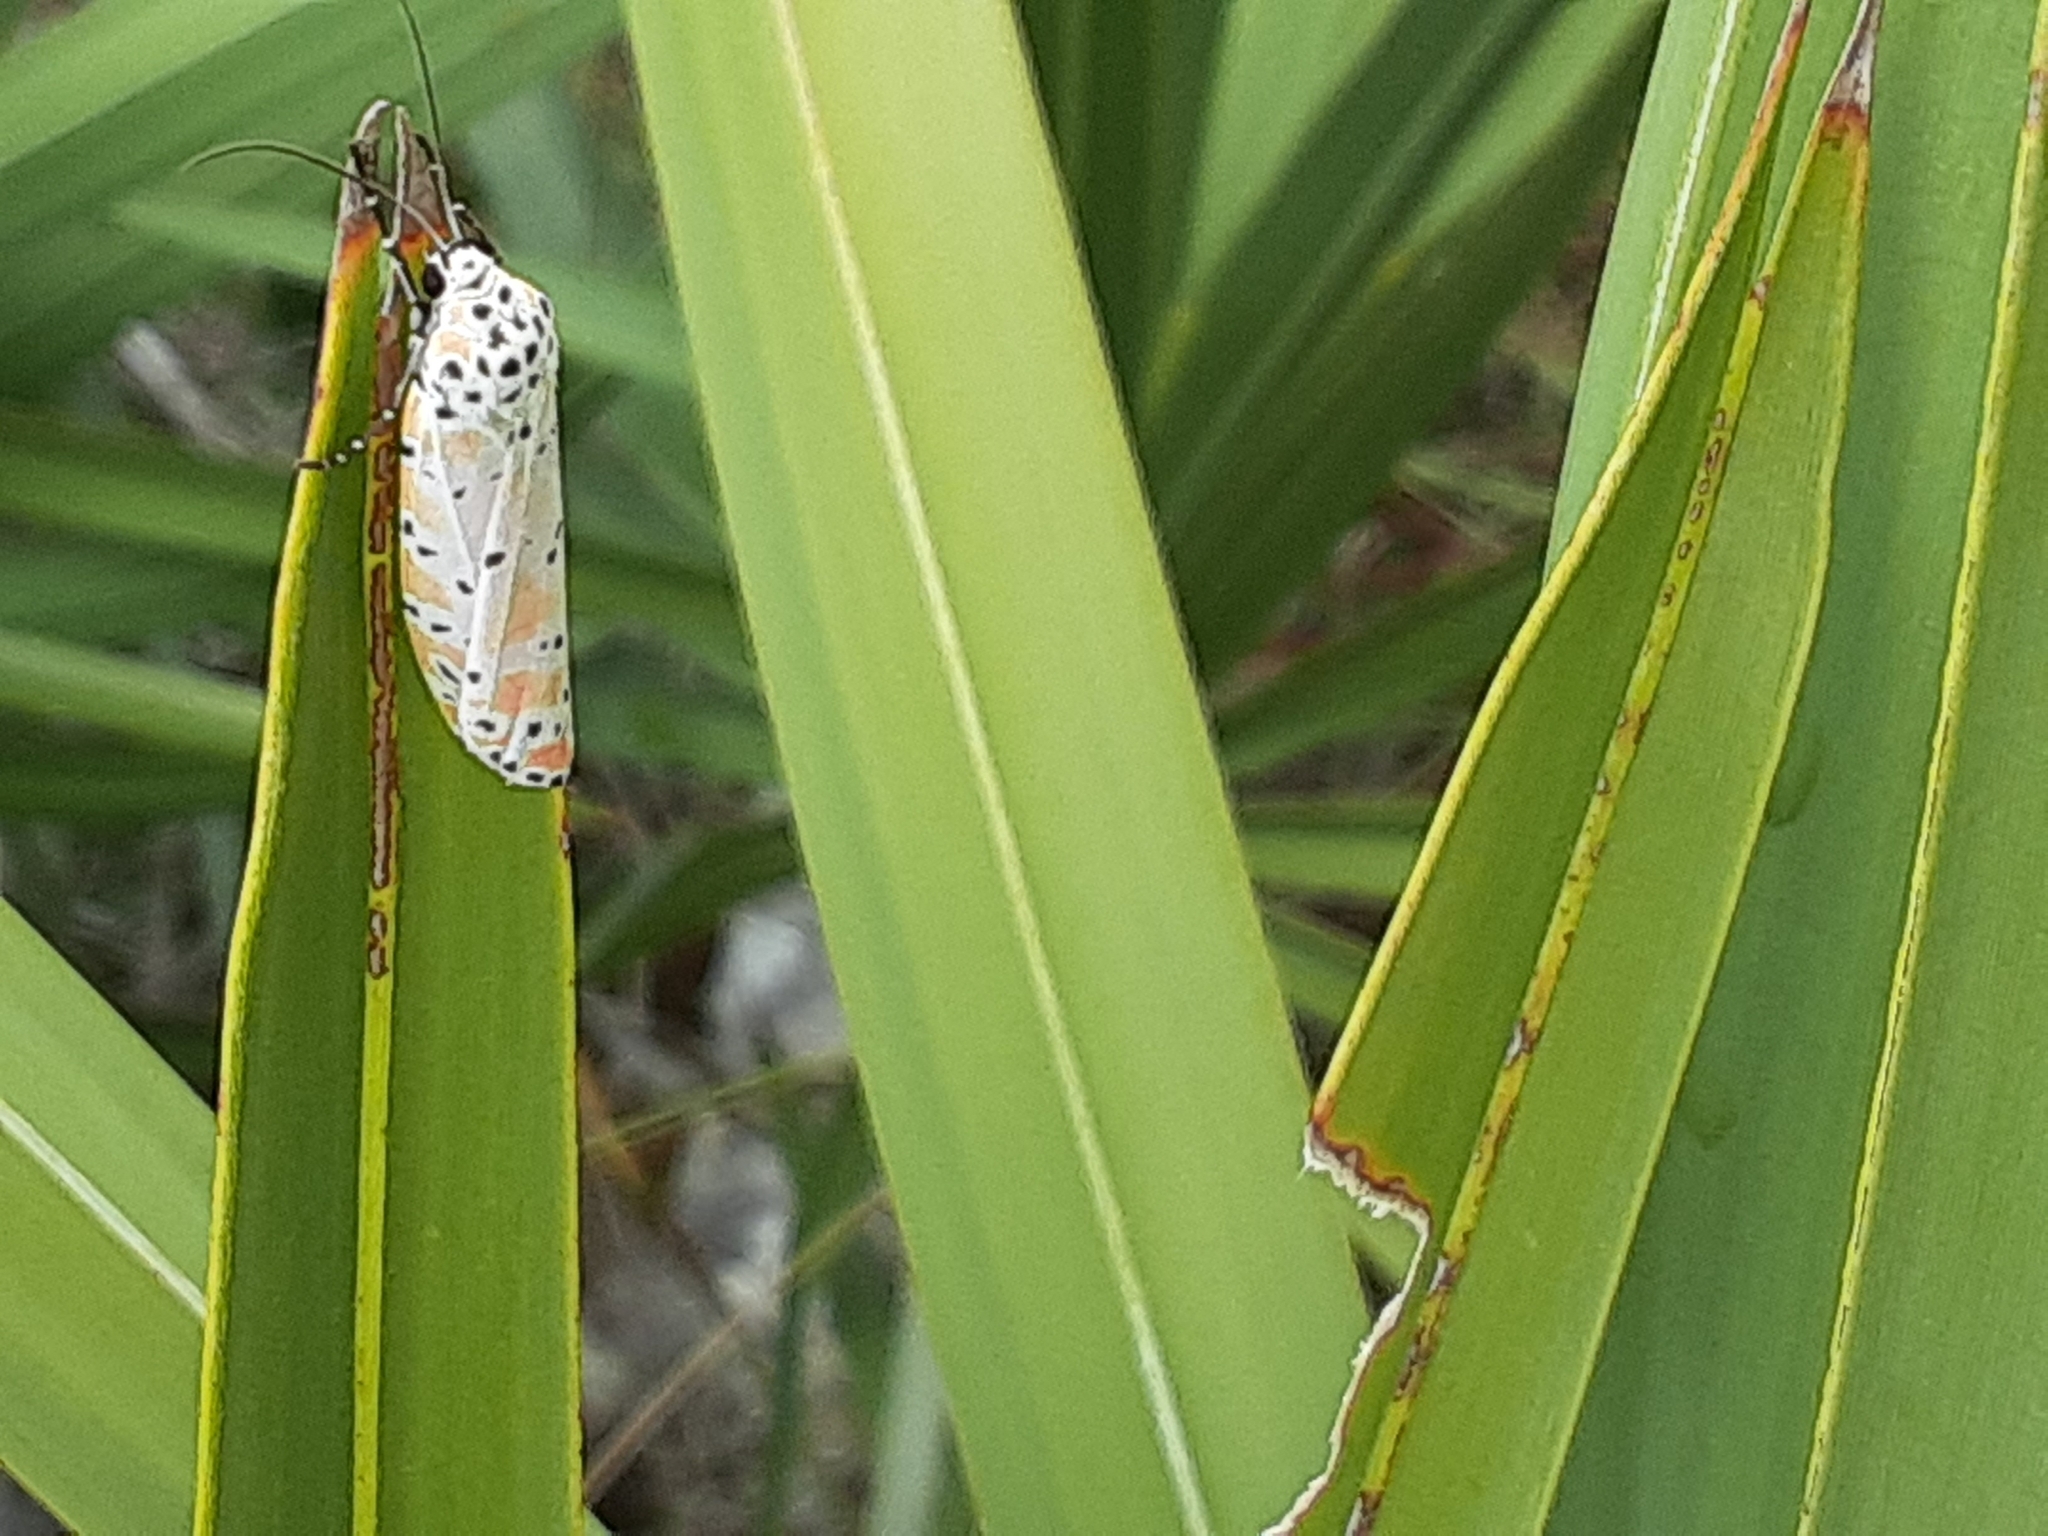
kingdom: Animalia
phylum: Arthropoda
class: Insecta
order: Lepidoptera
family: Erebidae
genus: Utetheisa
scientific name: Utetheisa ornatrix
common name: Beautiful utetheisa
